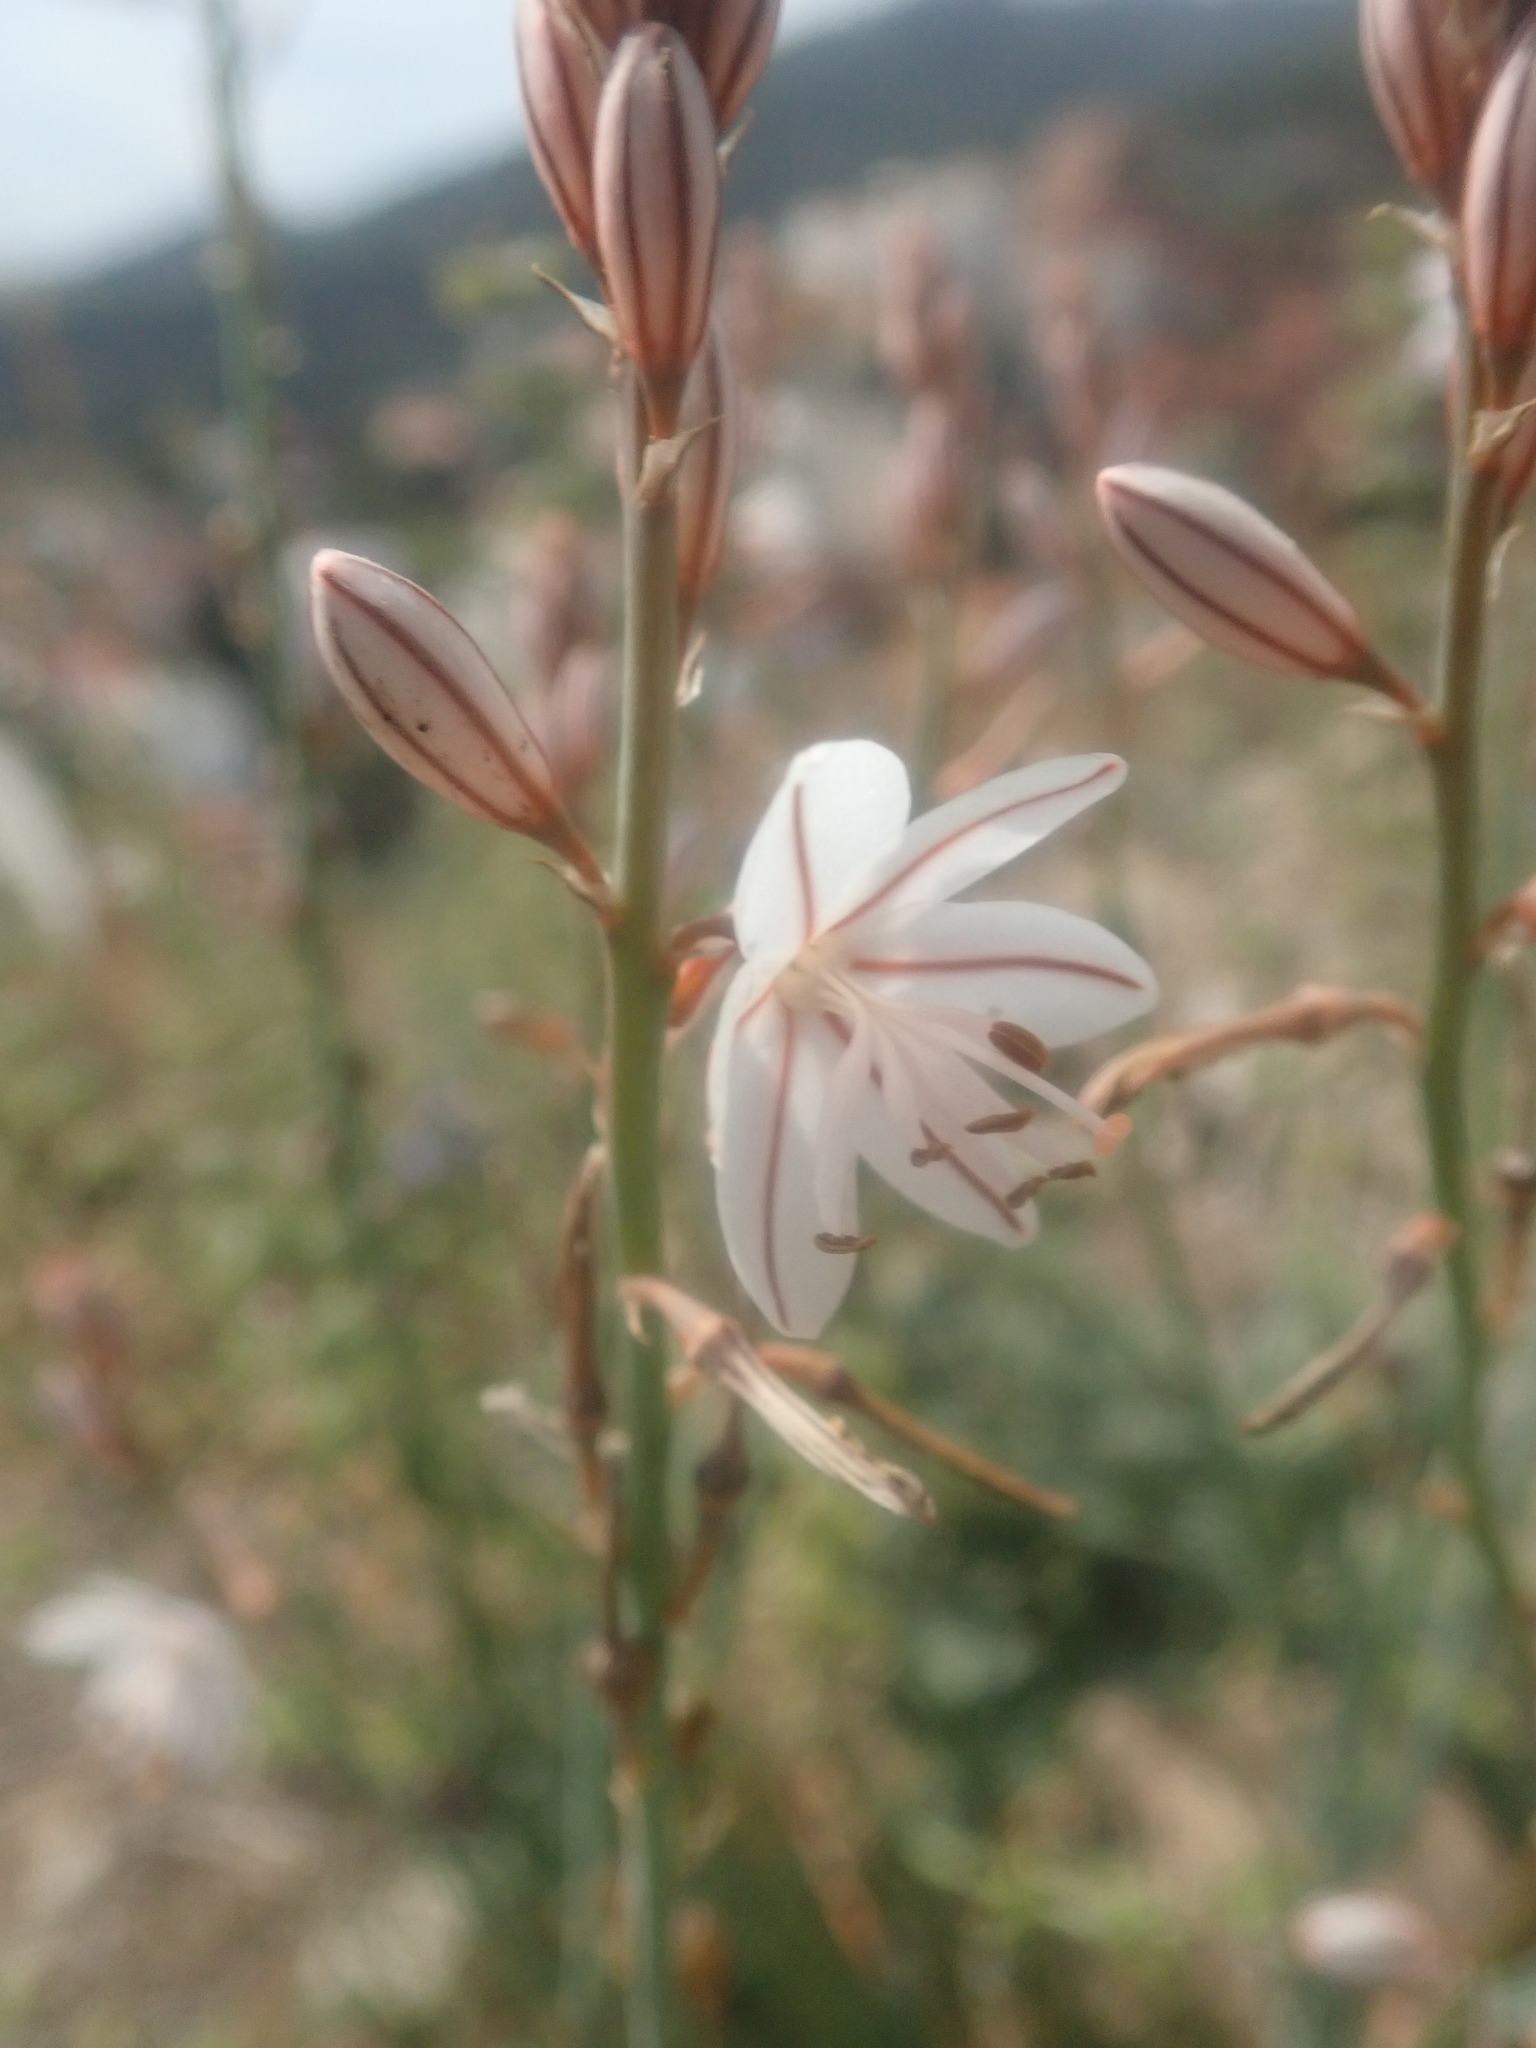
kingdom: Plantae
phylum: Tracheophyta
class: Liliopsida
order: Asparagales
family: Asphodelaceae
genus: Asphodelus
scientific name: Asphodelus fistulosus
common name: Onionweed
